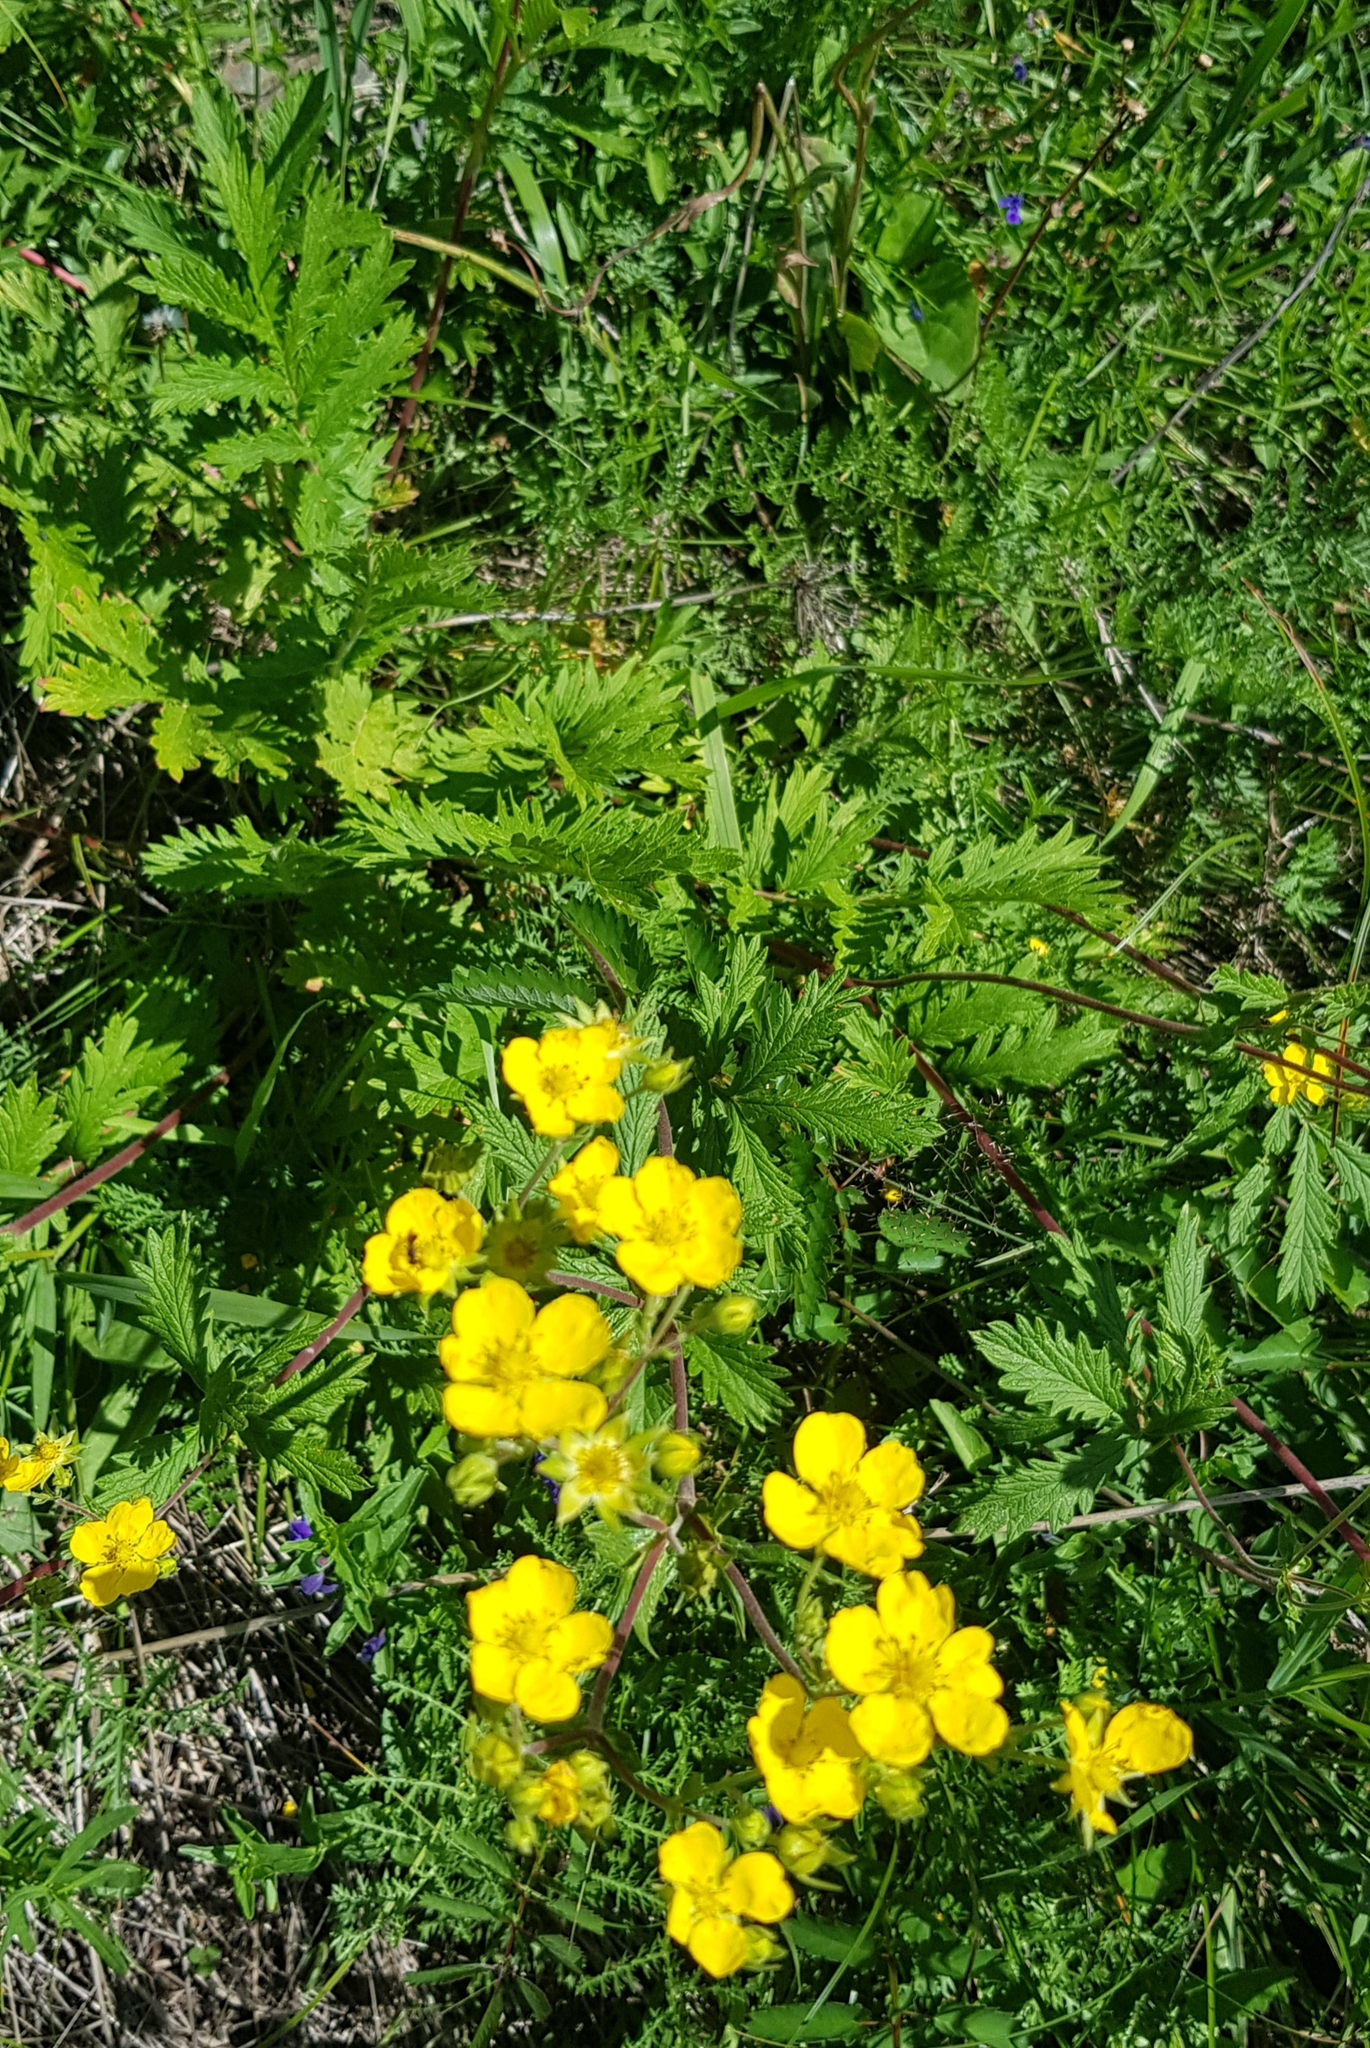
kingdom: Plantae
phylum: Tracheophyta
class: Magnoliopsida
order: Rosales
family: Rosaceae
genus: Potentilla
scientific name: Potentilla tanacetifolia
